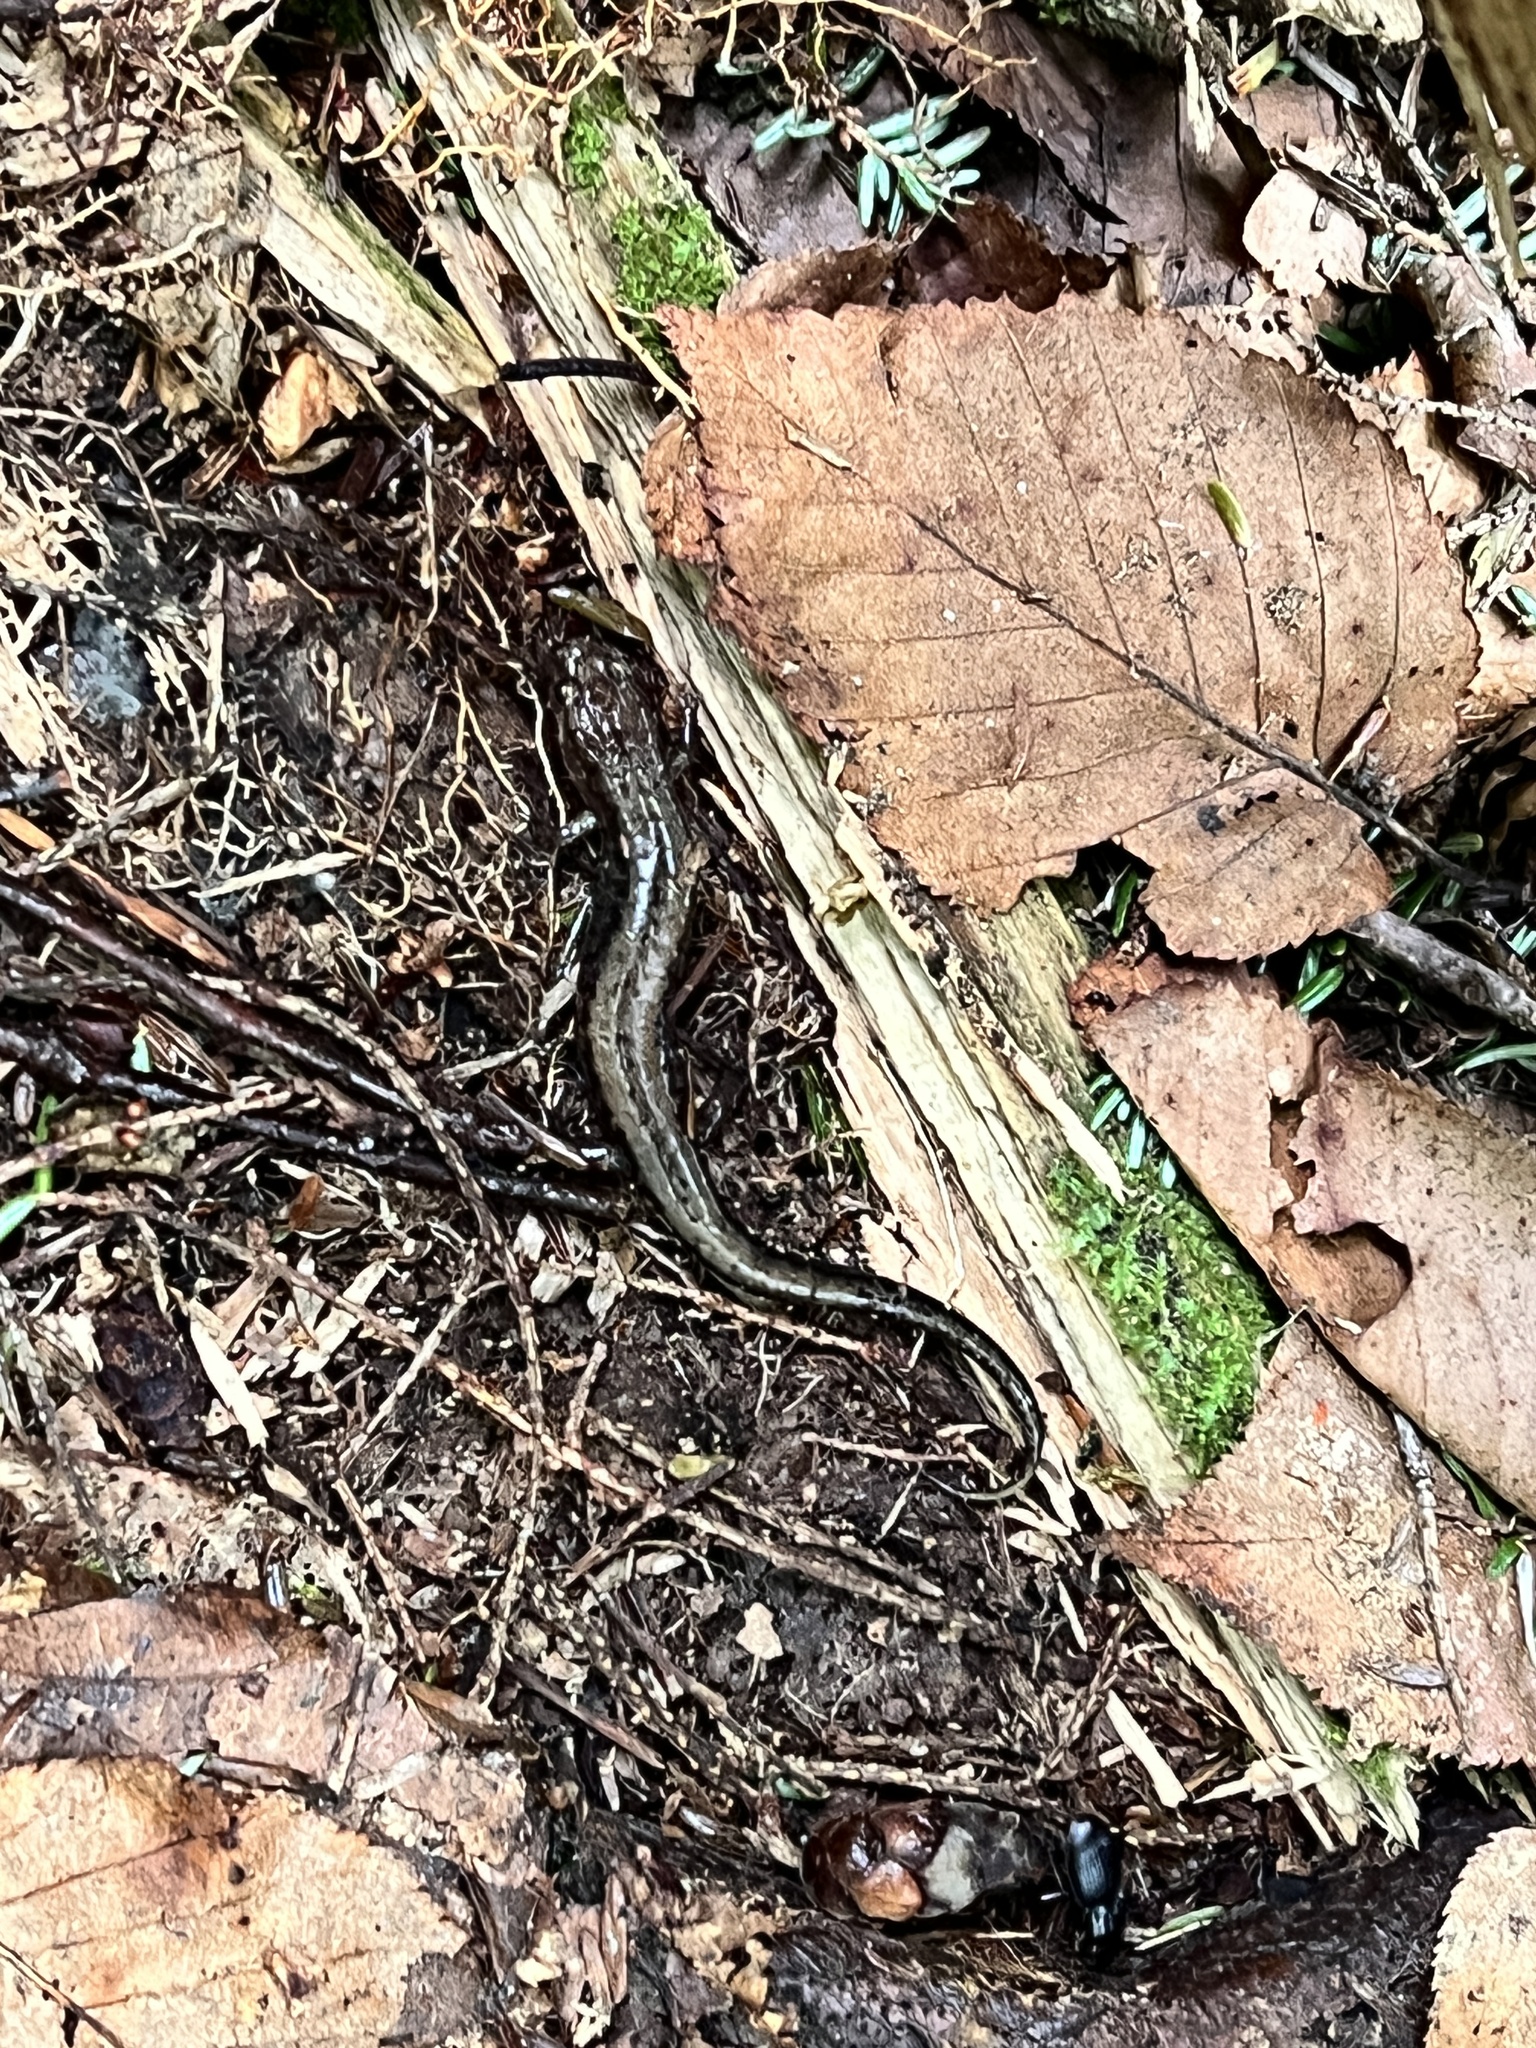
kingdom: Animalia
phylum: Chordata
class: Amphibia
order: Caudata
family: Plethodontidae
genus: Desmognathus
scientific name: Desmognathus ochrophaeus
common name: Allegheny mountain dusky salamander
